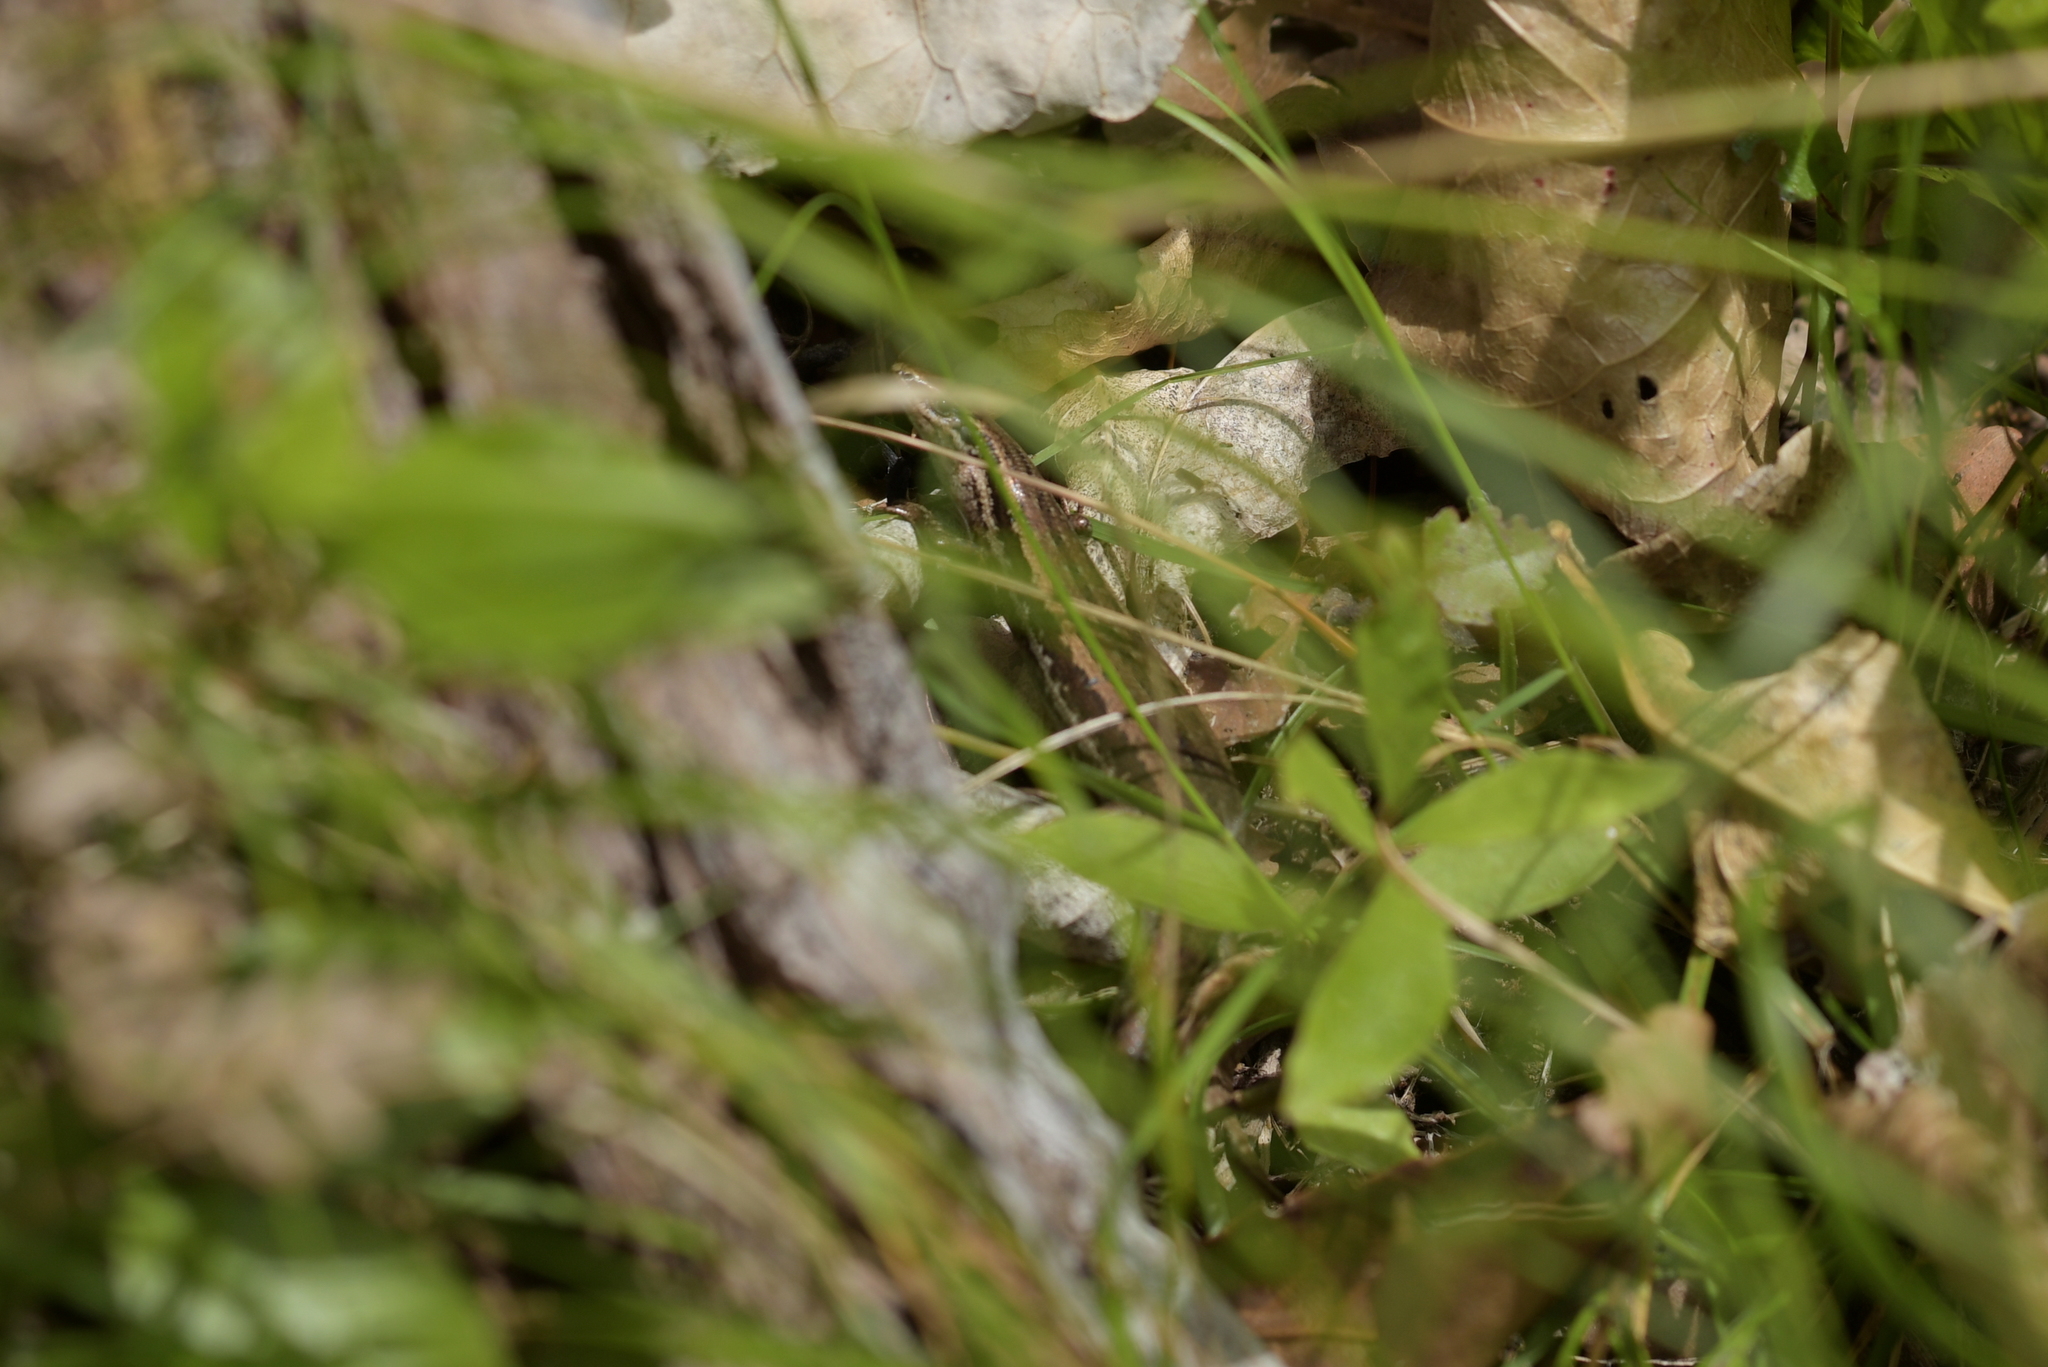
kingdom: Animalia
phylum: Chordata
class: Squamata
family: Scincidae
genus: Oligosoma
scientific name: Oligosoma polychroma
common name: Common new zealand skink
